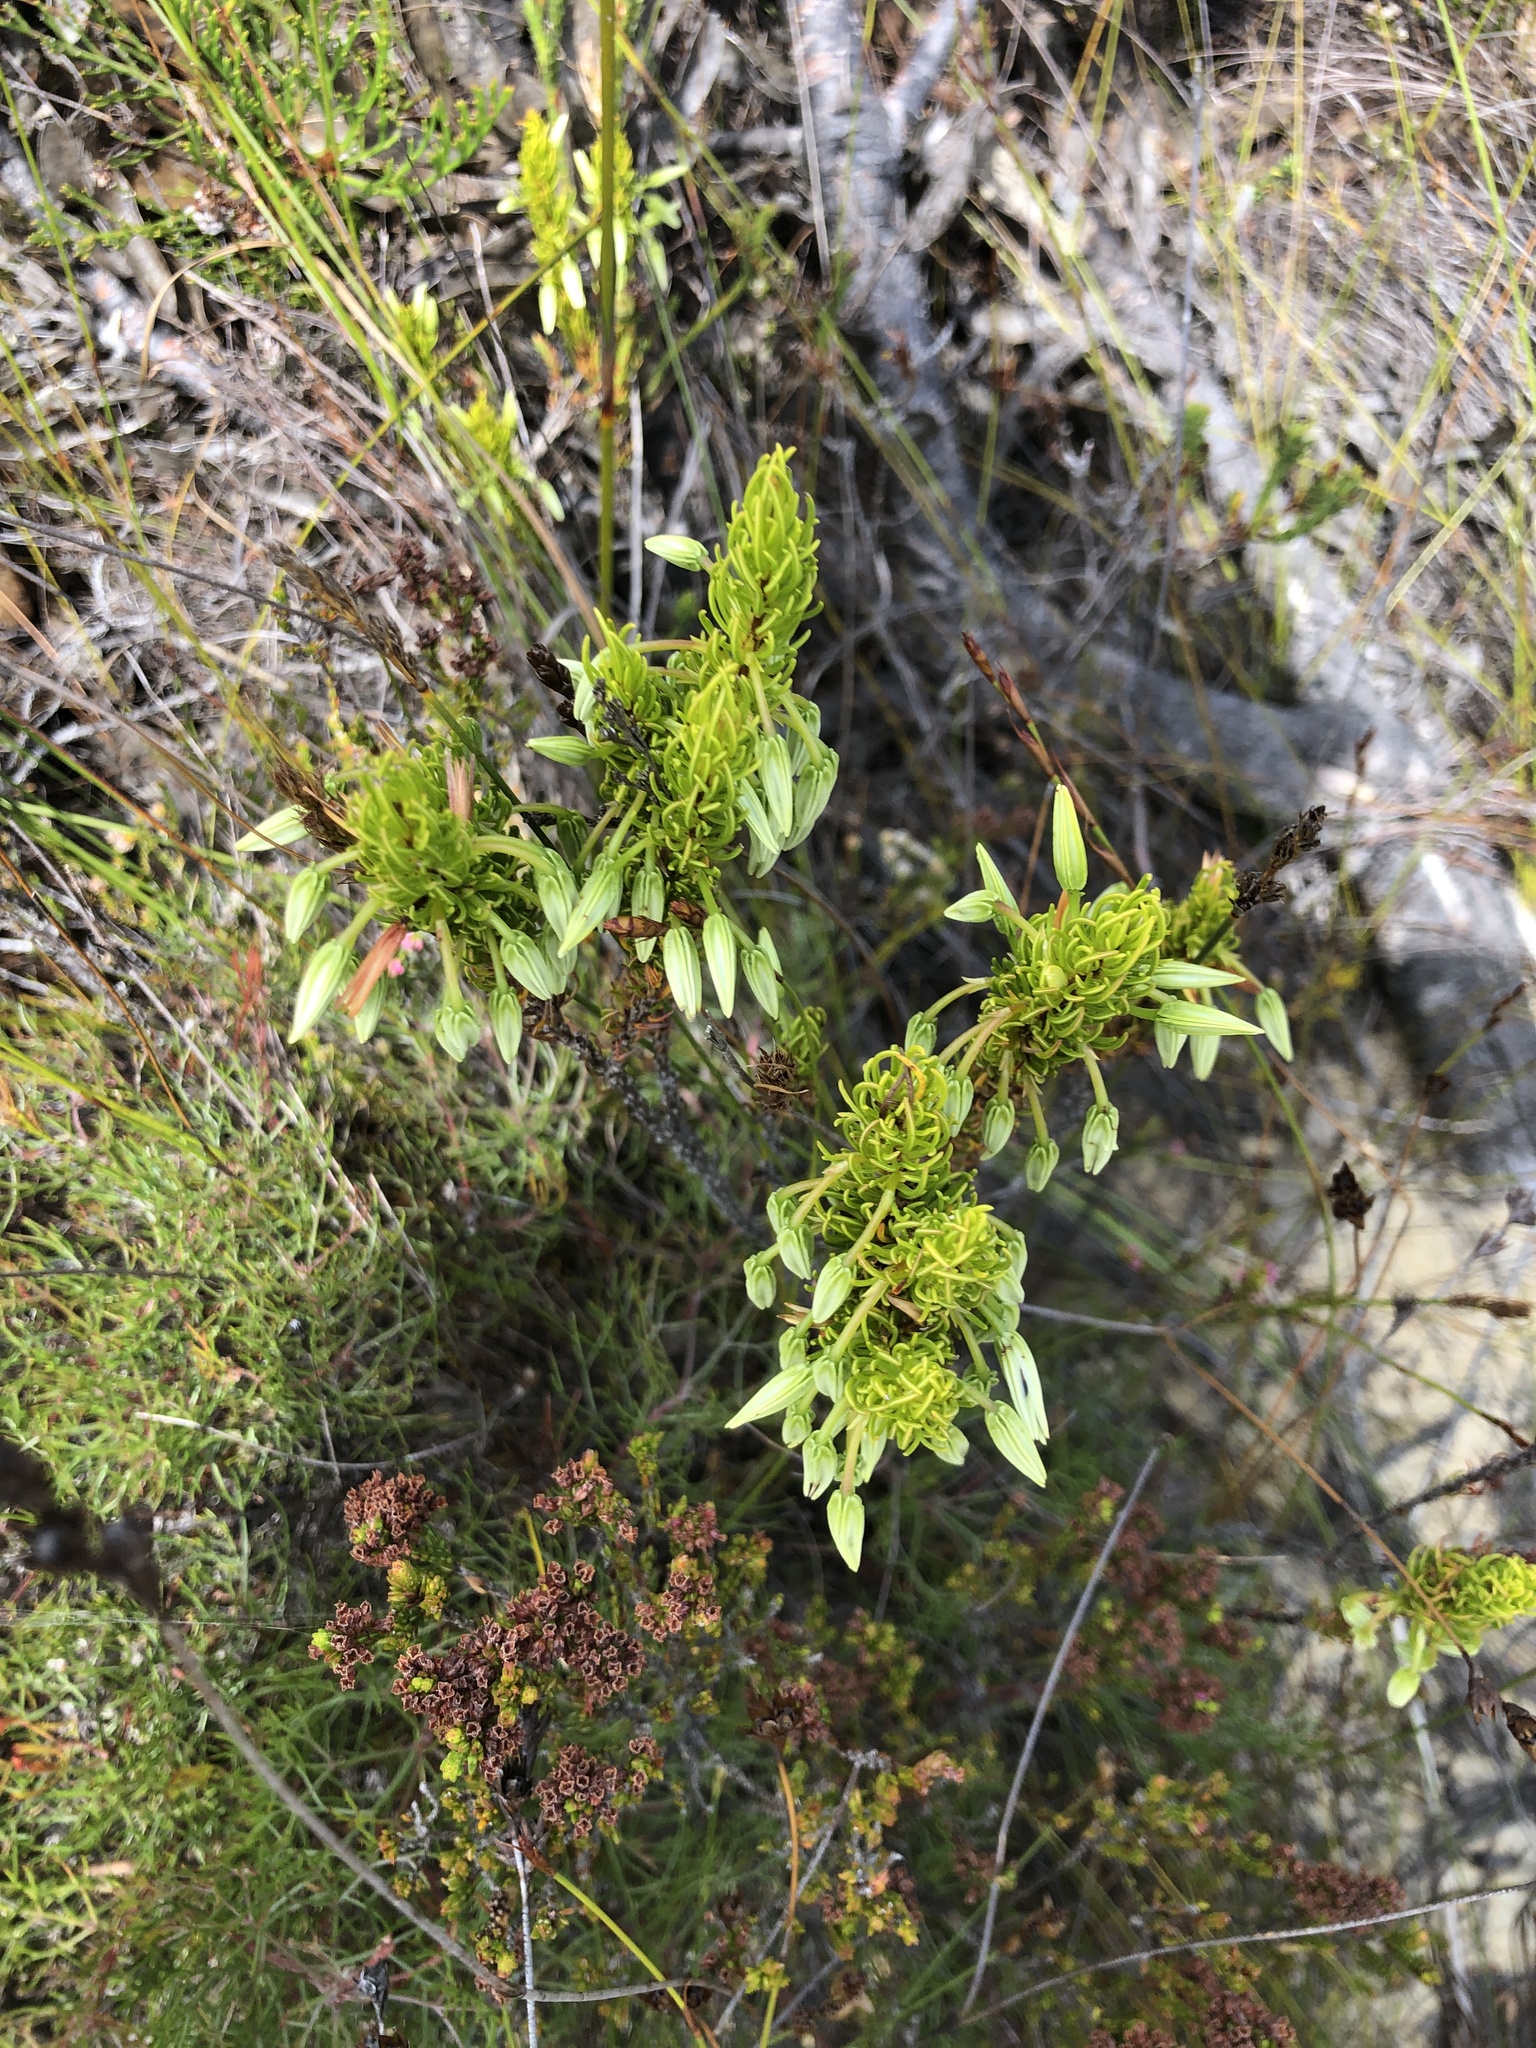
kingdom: Plantae
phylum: Tracheophyta
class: Magnoliopsida
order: Ericales
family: Ericaceae
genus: Erica
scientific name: Erica plukenetii
